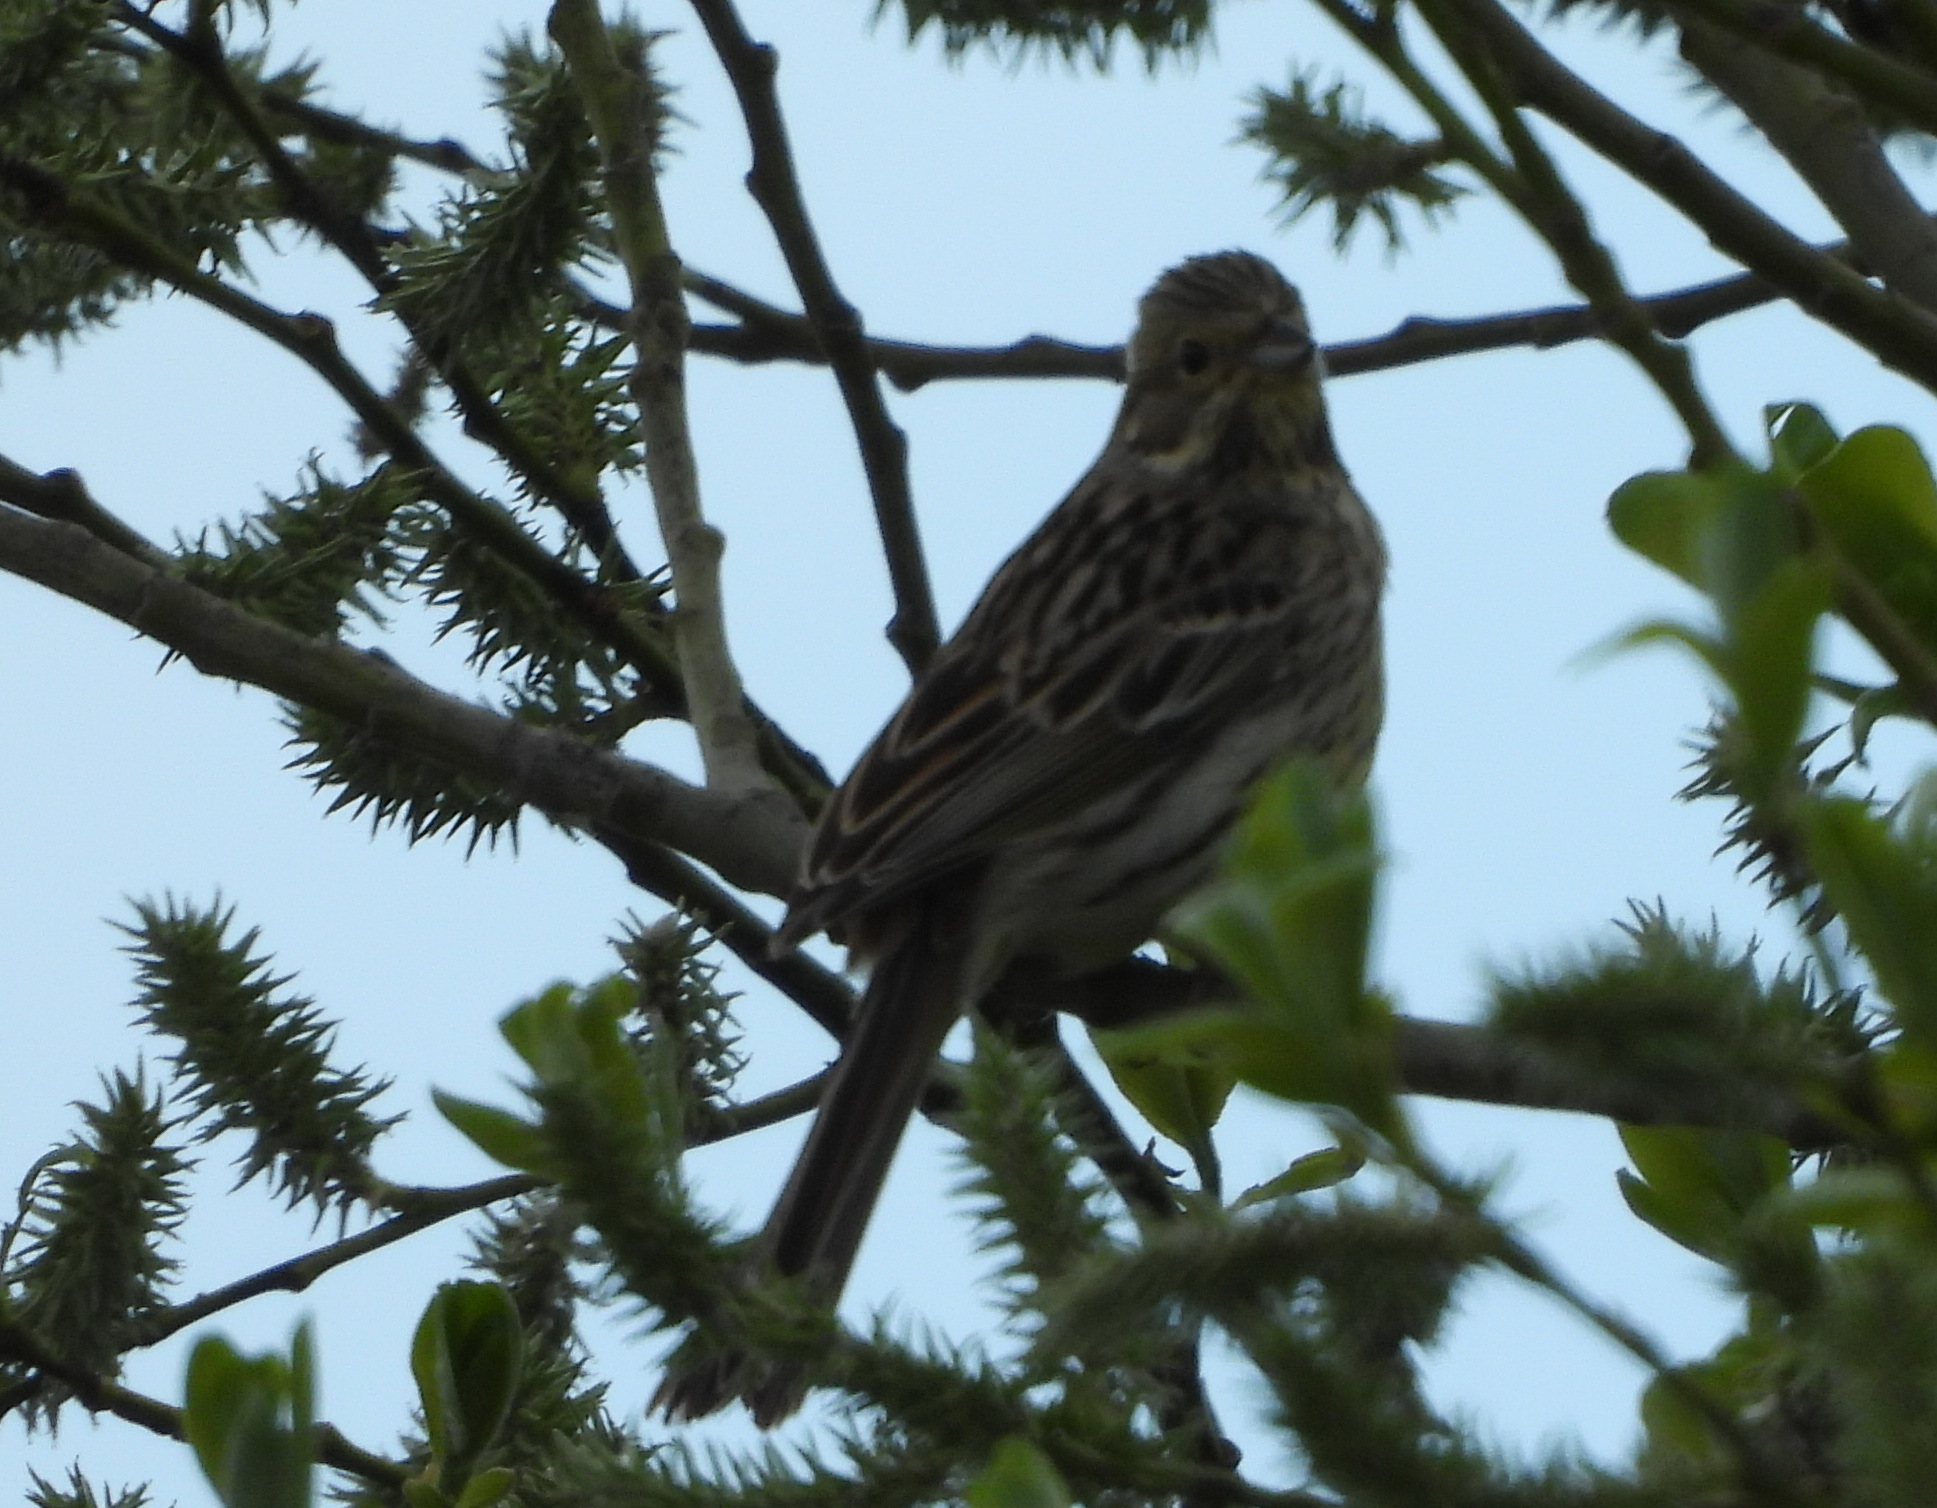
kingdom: Animalia
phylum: Chordata
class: Aves
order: Passeriformes
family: Emberizidae
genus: Emberiza
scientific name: Emberiza citrinella
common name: Yellowhammer
